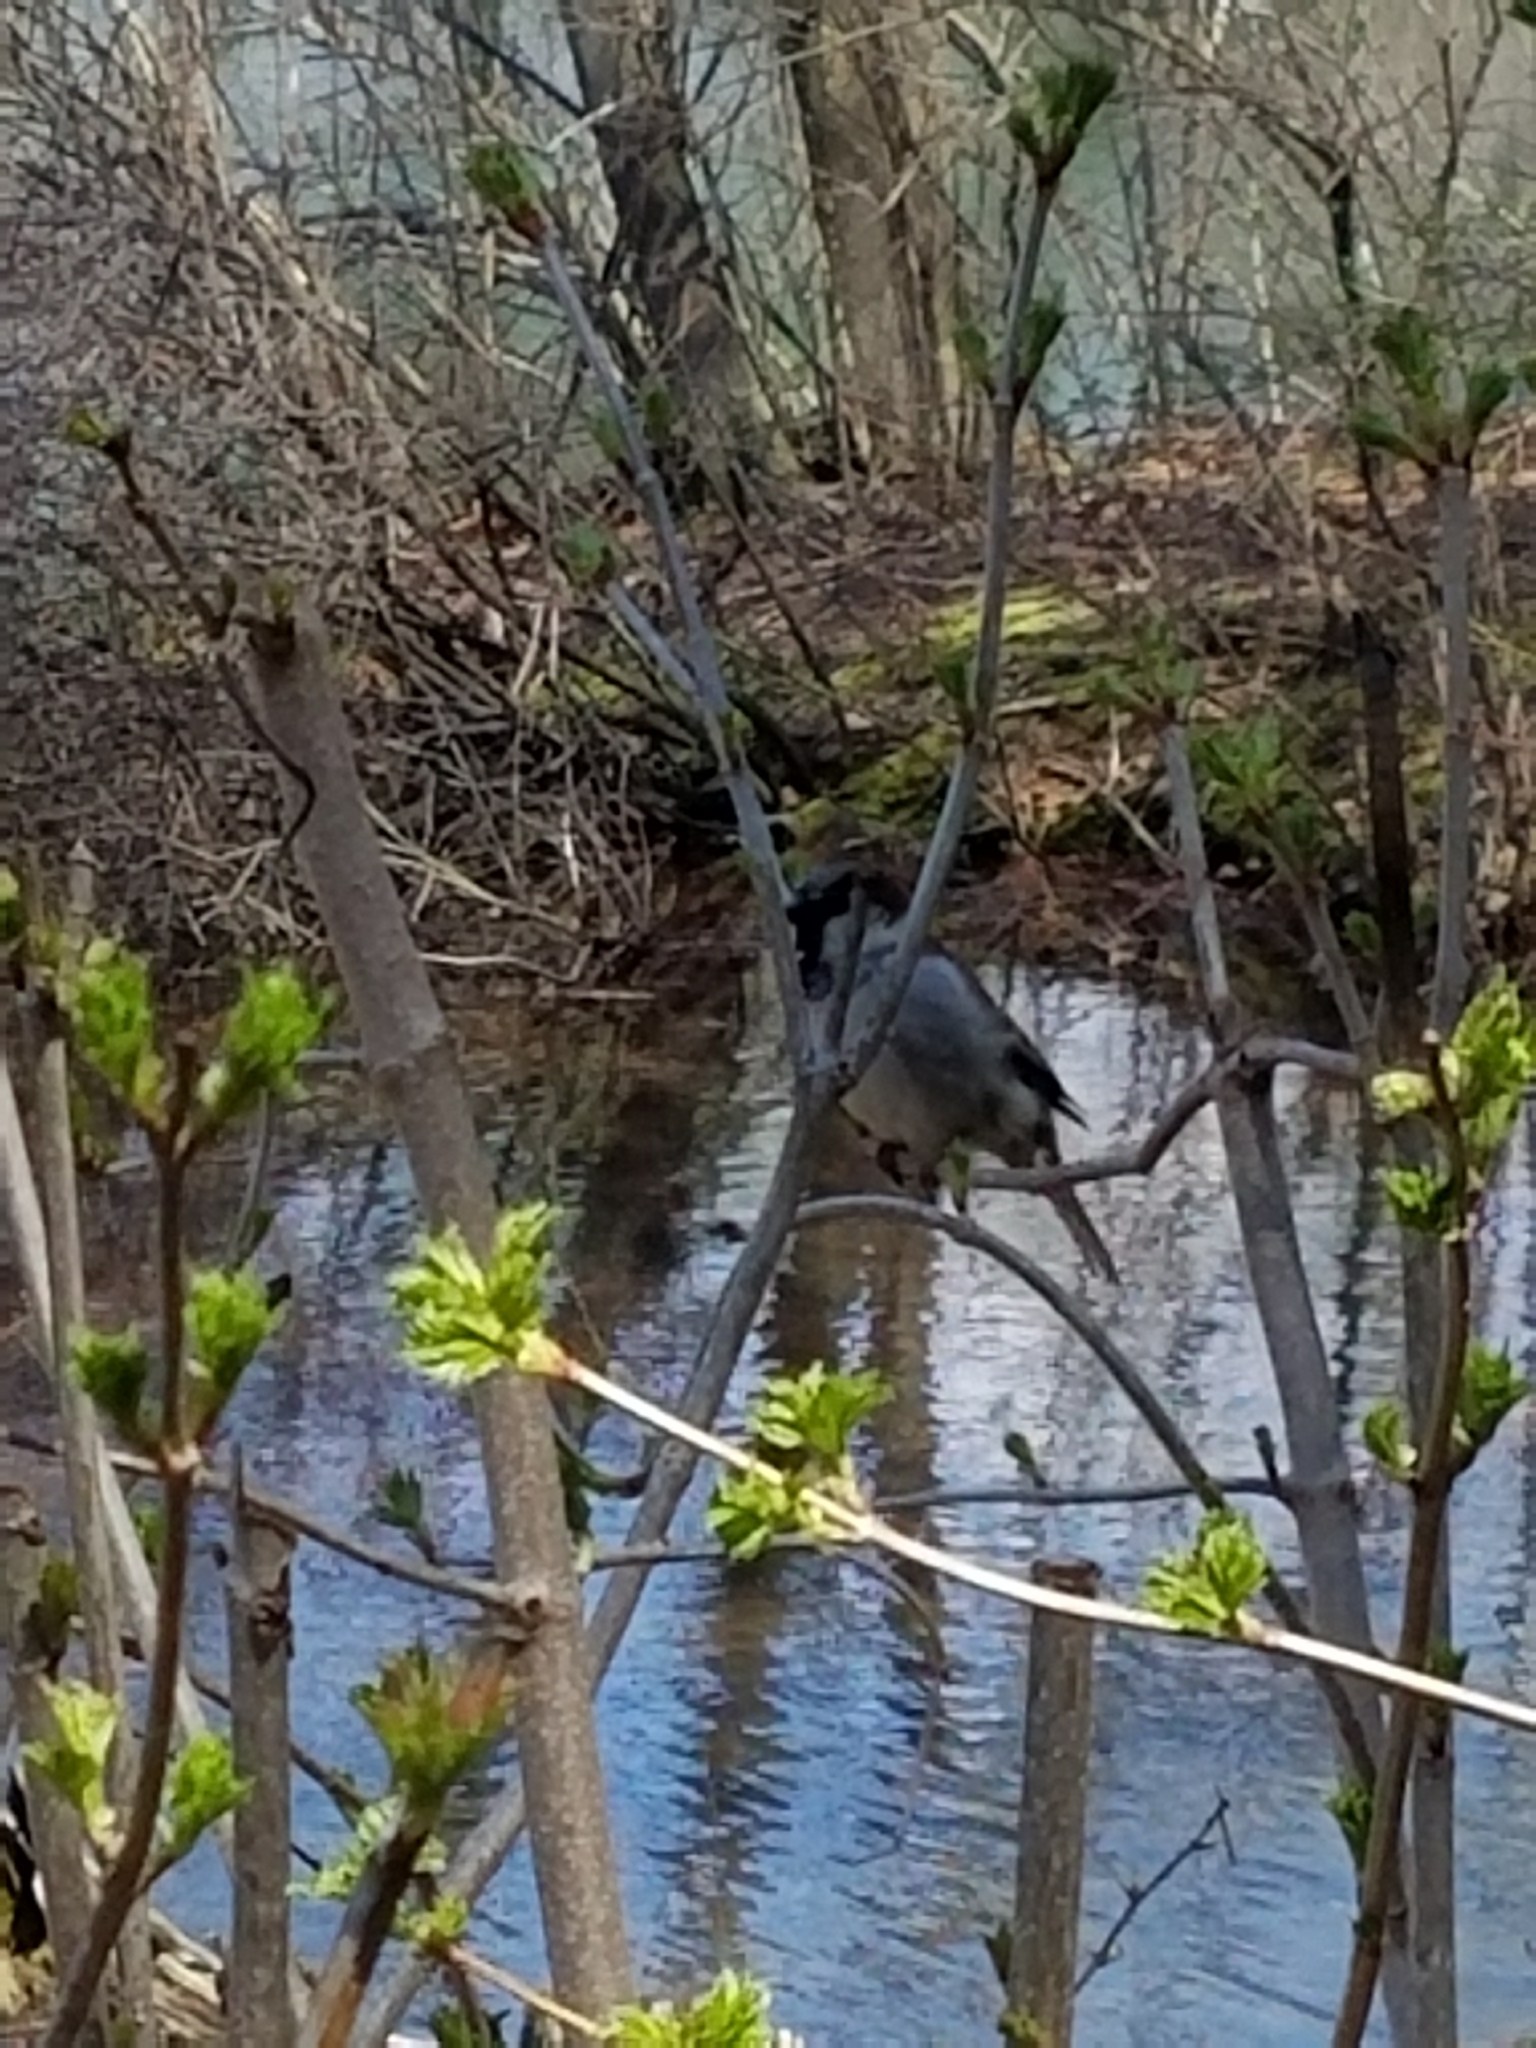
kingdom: Animalia
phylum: Chordata
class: Aves
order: Passeriformes
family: Passeridae
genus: Passer
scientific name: Passer domesticus
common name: House sparrow
